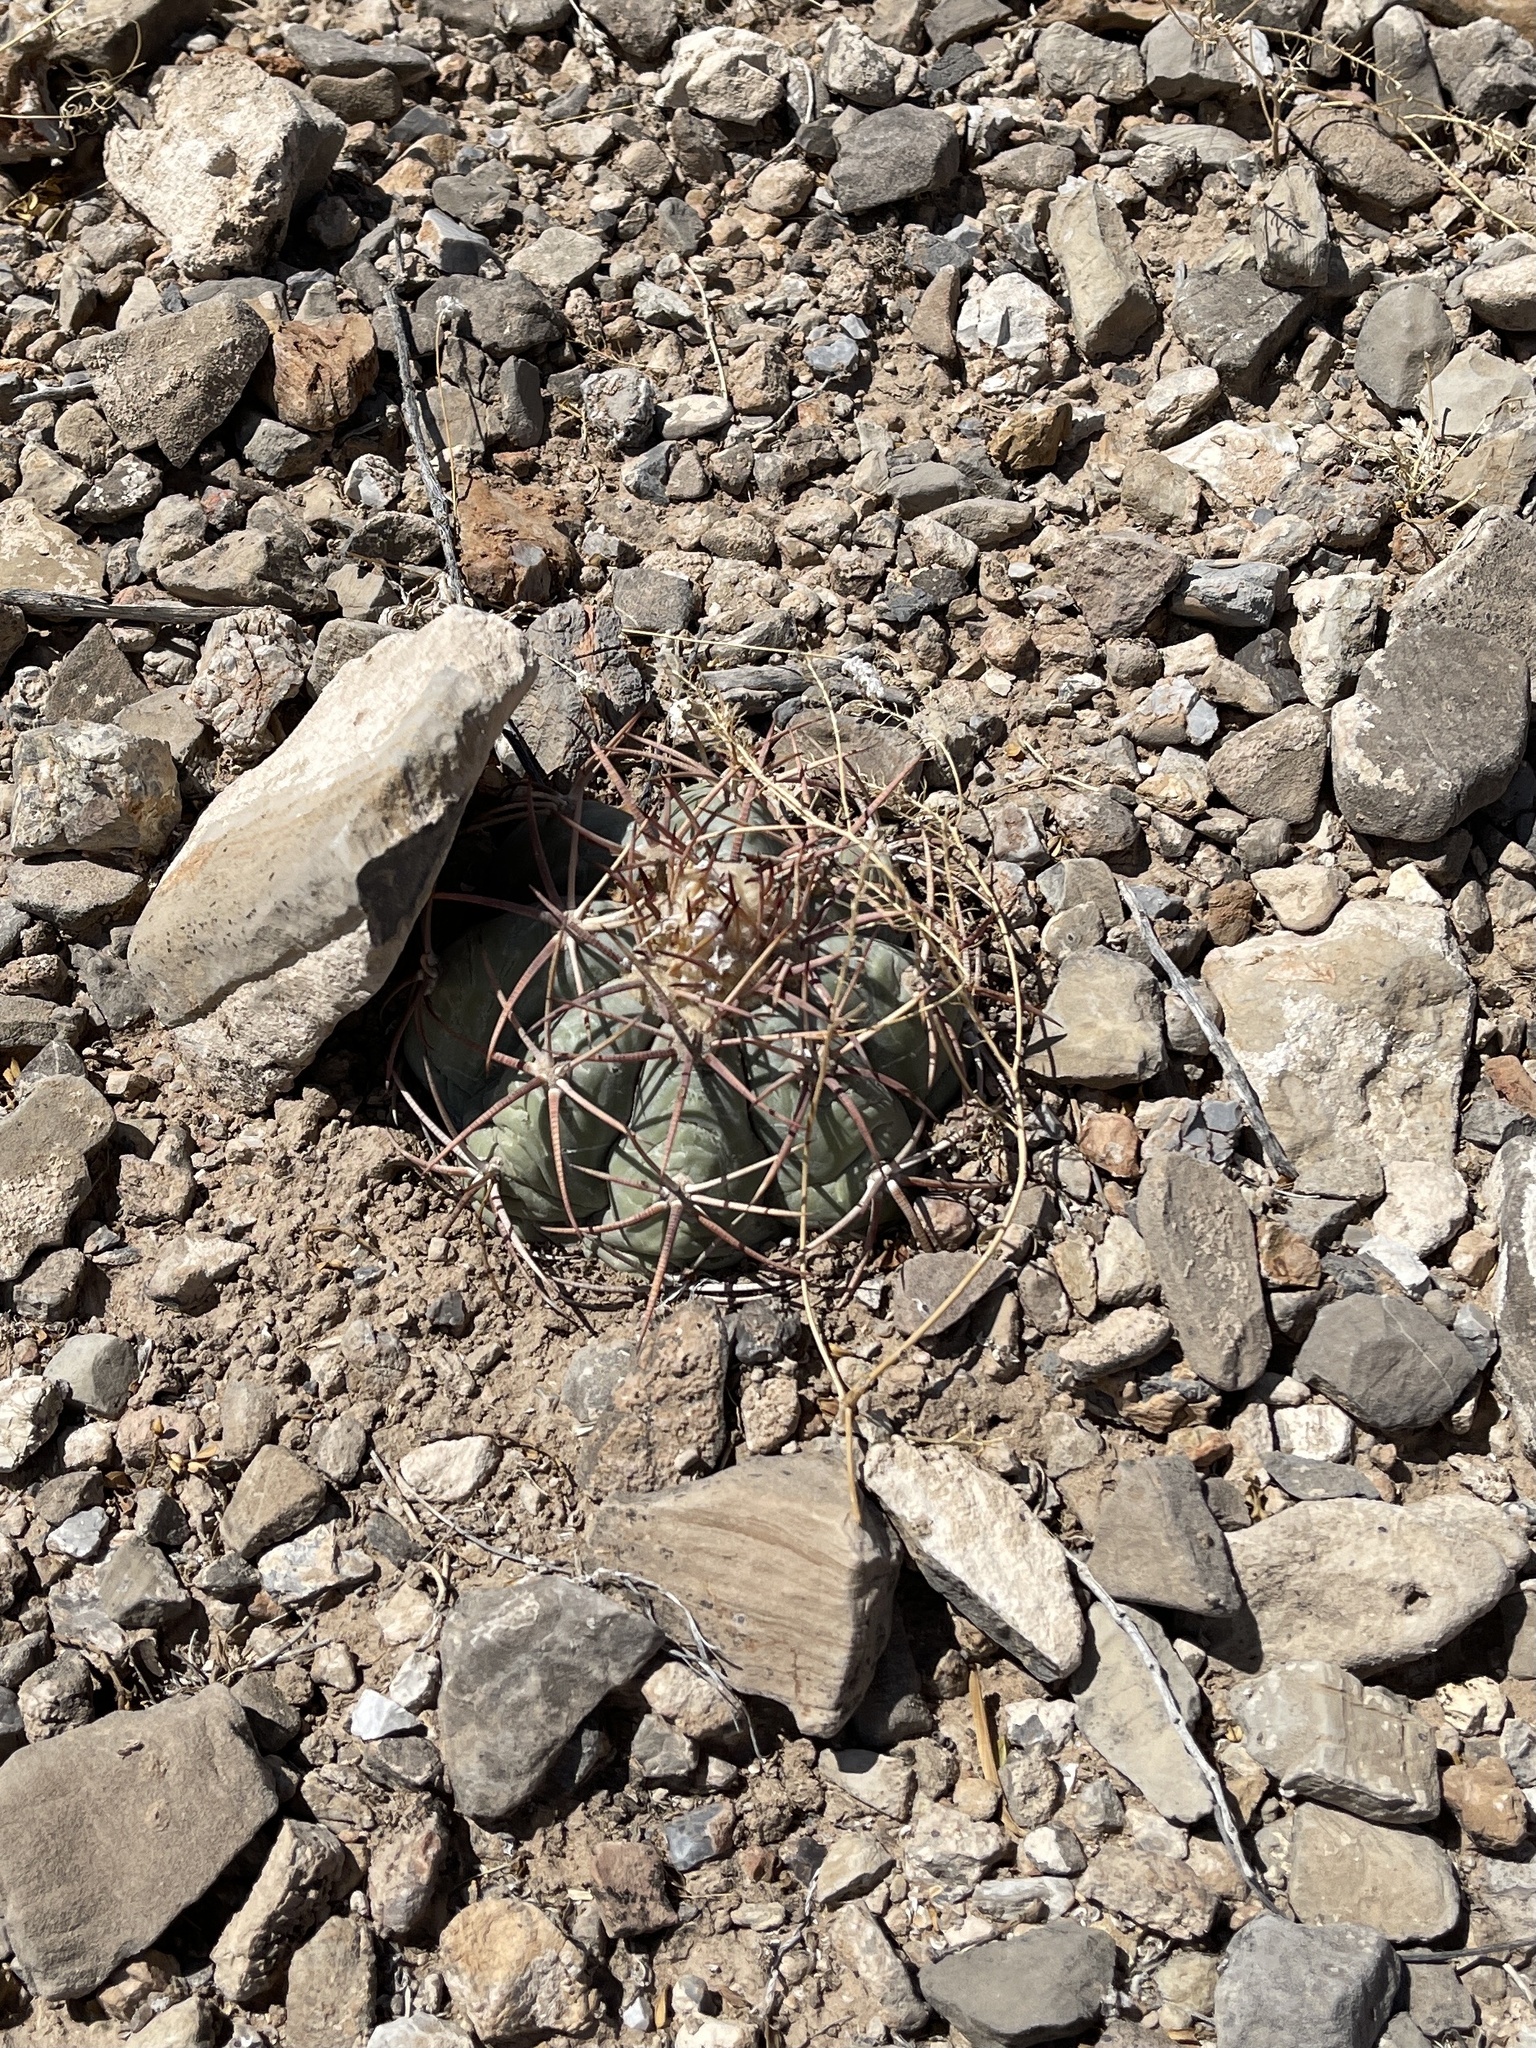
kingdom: Plantae
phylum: Tracheophyta
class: Magnoliopsida
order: Caryophyllales
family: Cactaceae
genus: Echinocactus
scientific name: Echinocactus horizonthalonius
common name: Devilshead
